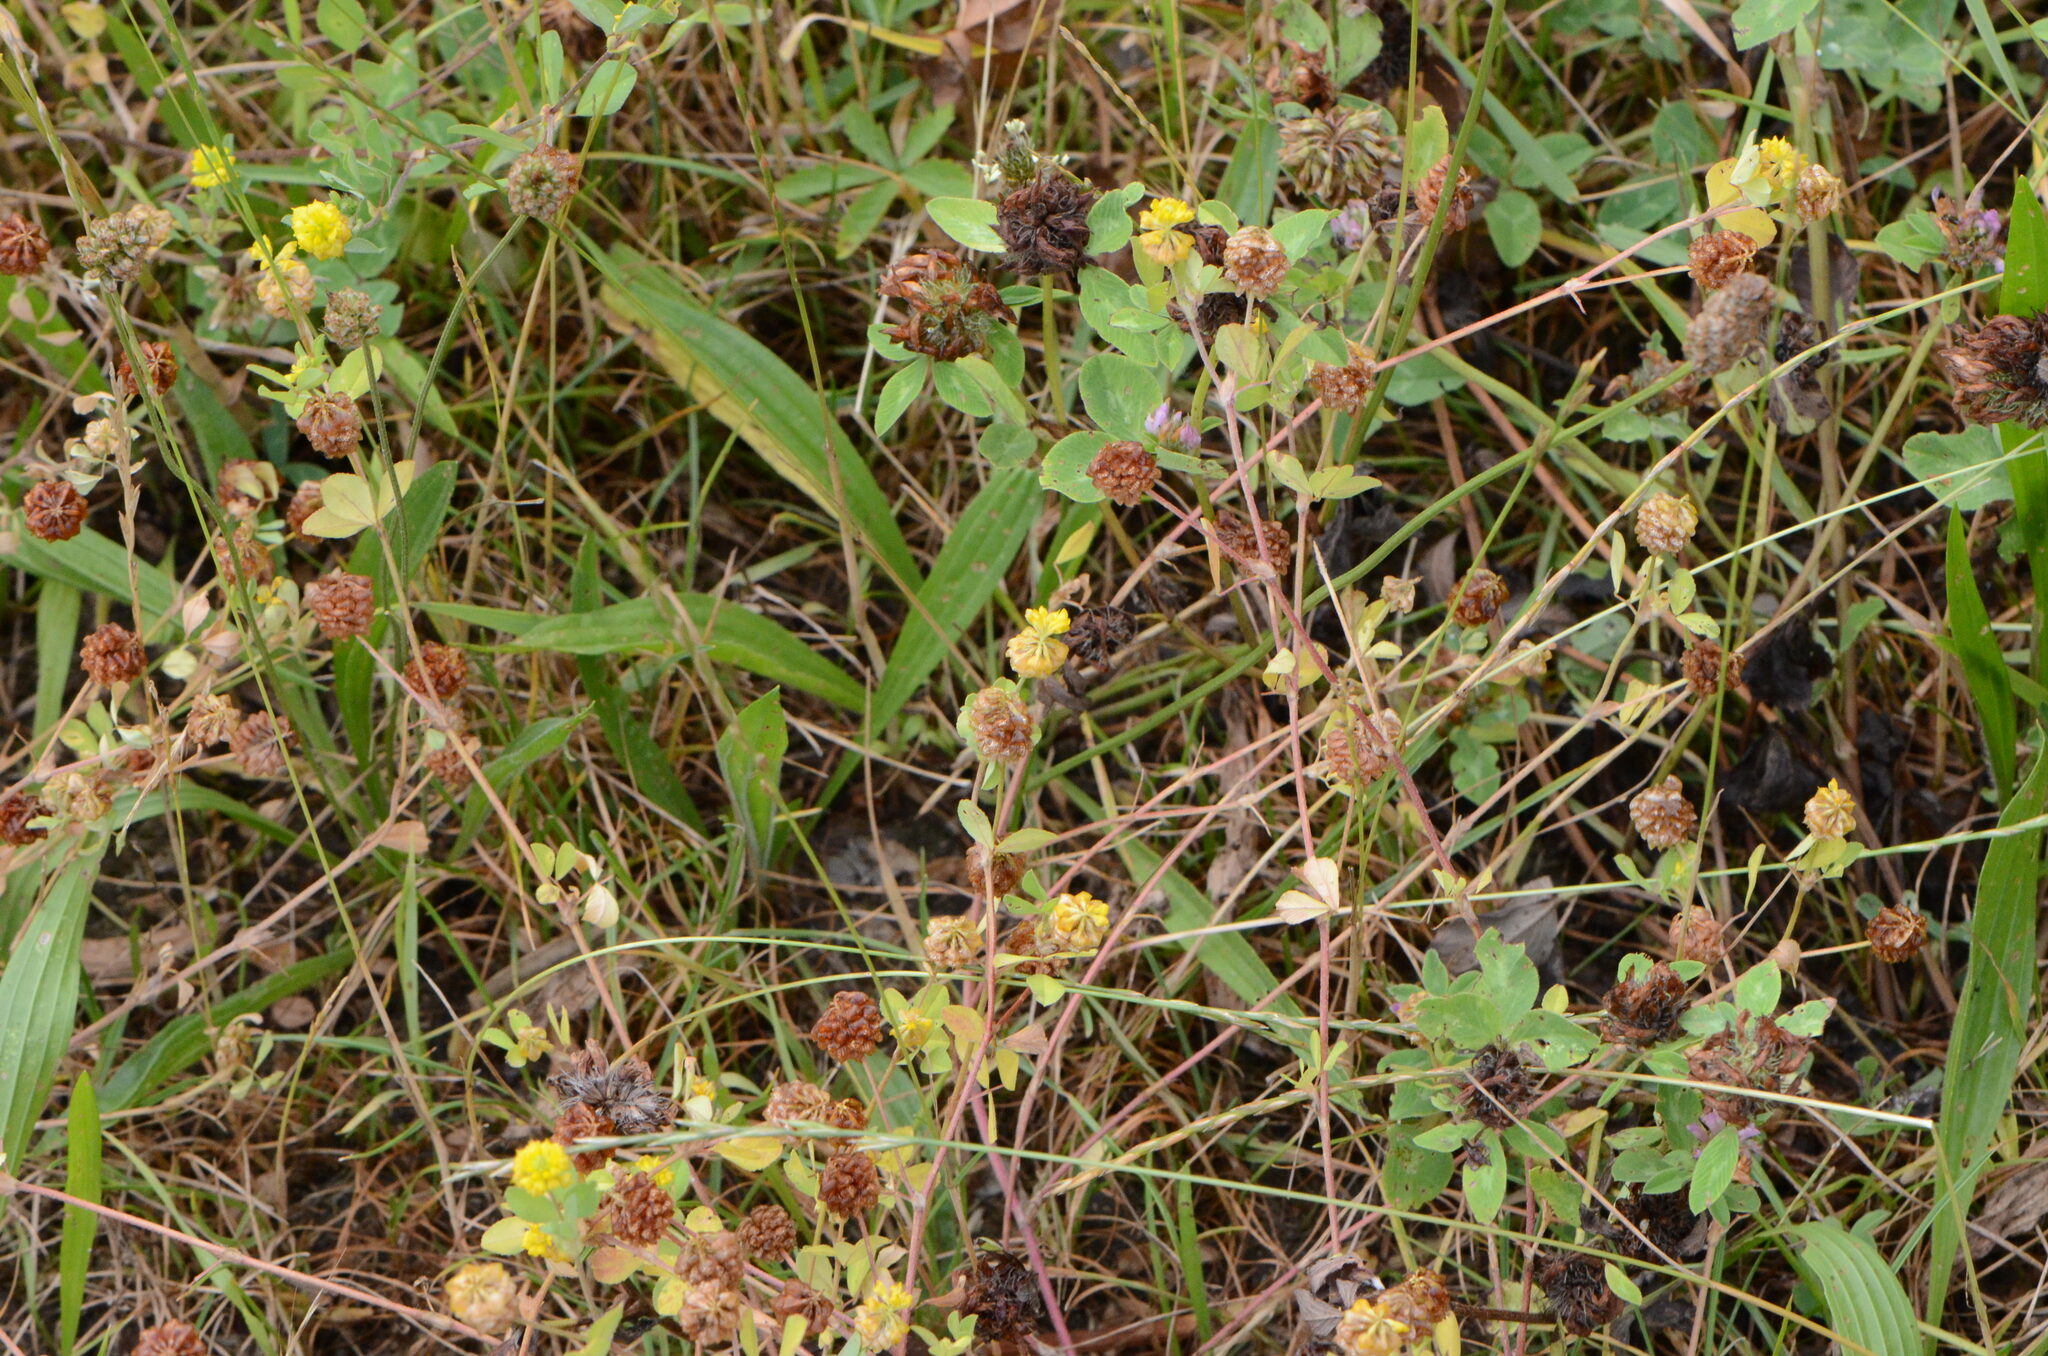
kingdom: Plantae
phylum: Tracheophyta
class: Magnoliopsida
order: Fabales
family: Fabaceae
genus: Trifolium
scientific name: Trifolium campestre
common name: Field clover
